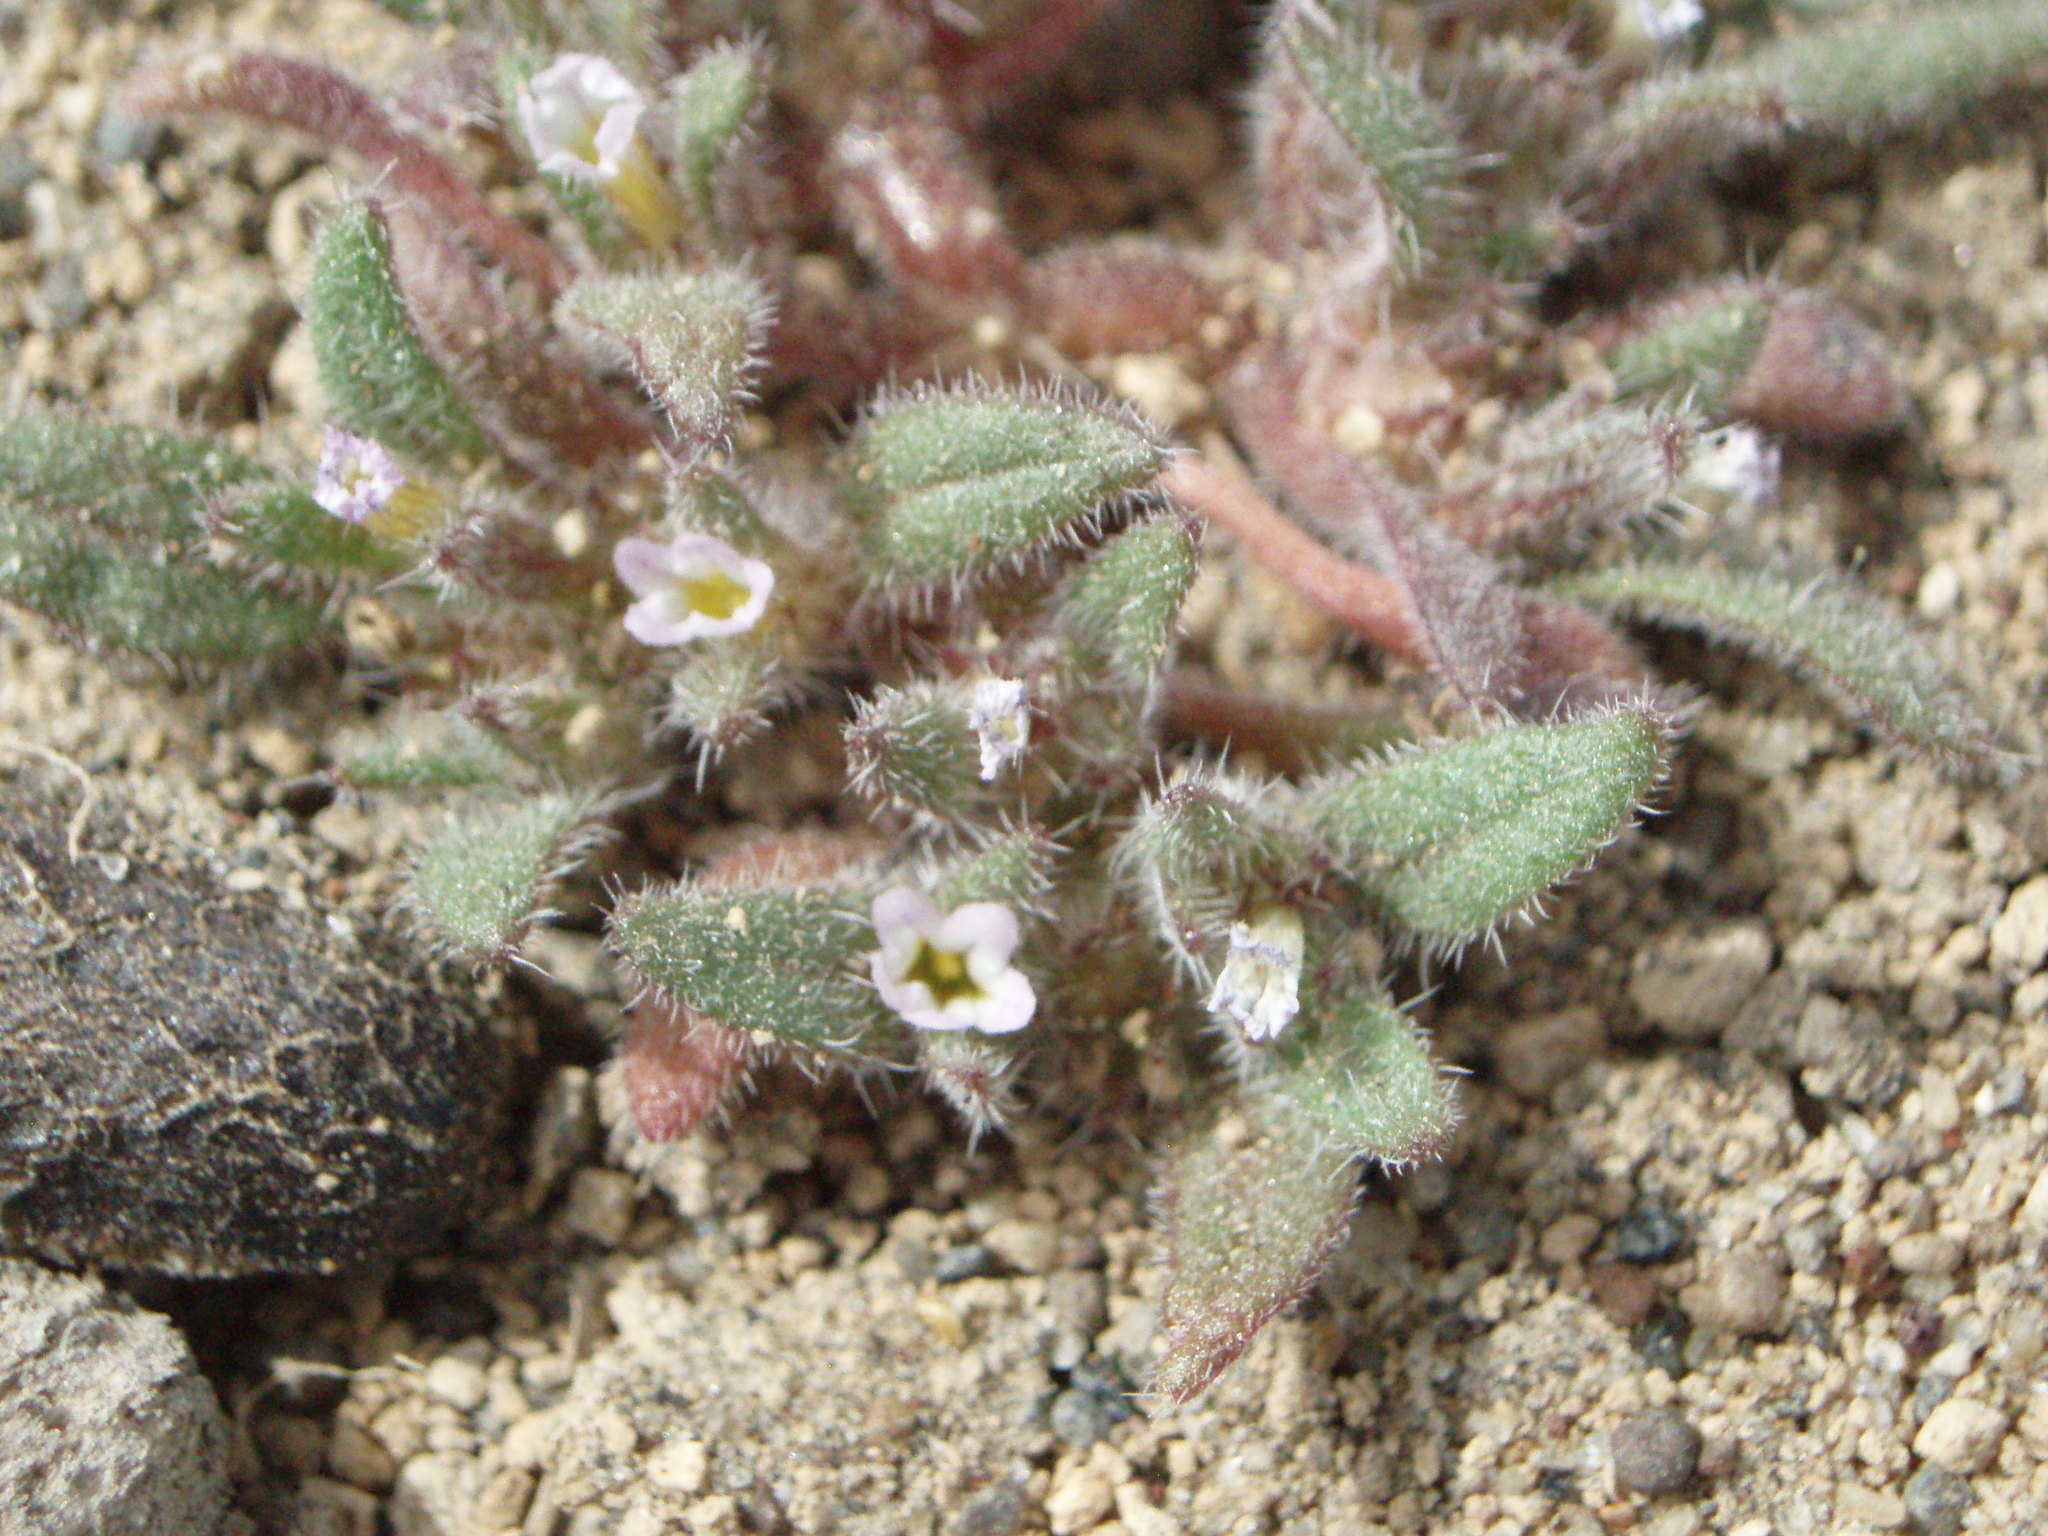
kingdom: Plantae
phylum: Tracheophyta
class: Magnoliopsida
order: Boraginales
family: Namaceae
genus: Nama
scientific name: Nama densa
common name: Leafy nama
